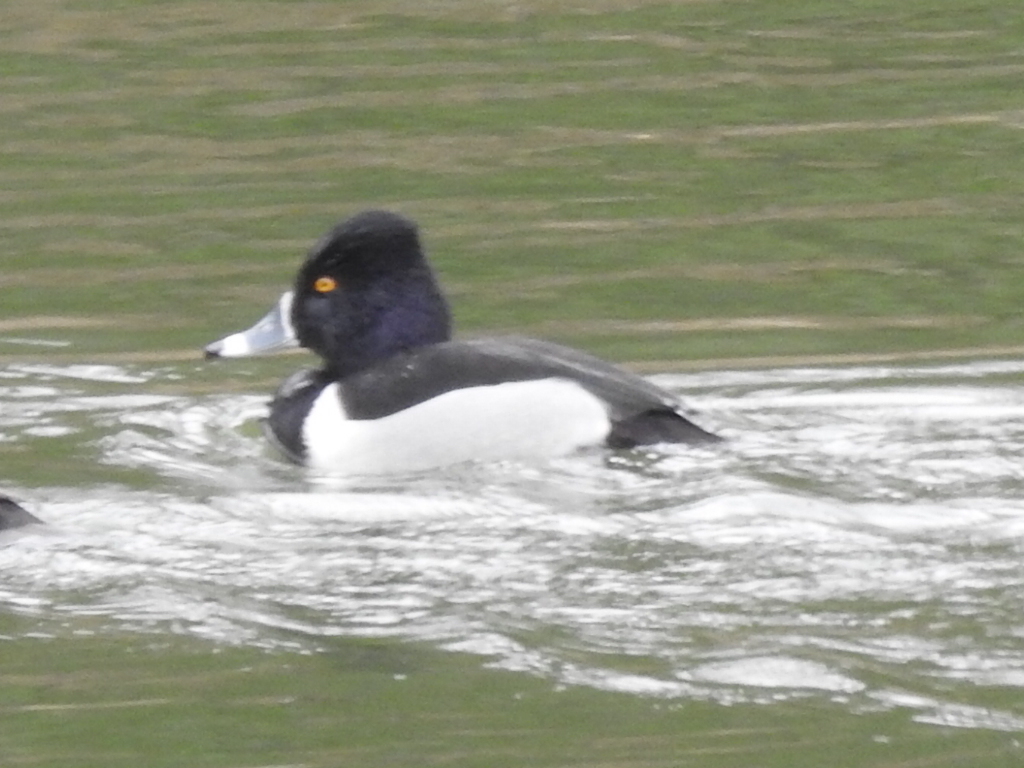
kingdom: Animalia
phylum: Chordata
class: Aves
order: Anseriformes
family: Anatidae
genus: Aythya
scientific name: Aythya collaris
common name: Ring-necked duck
